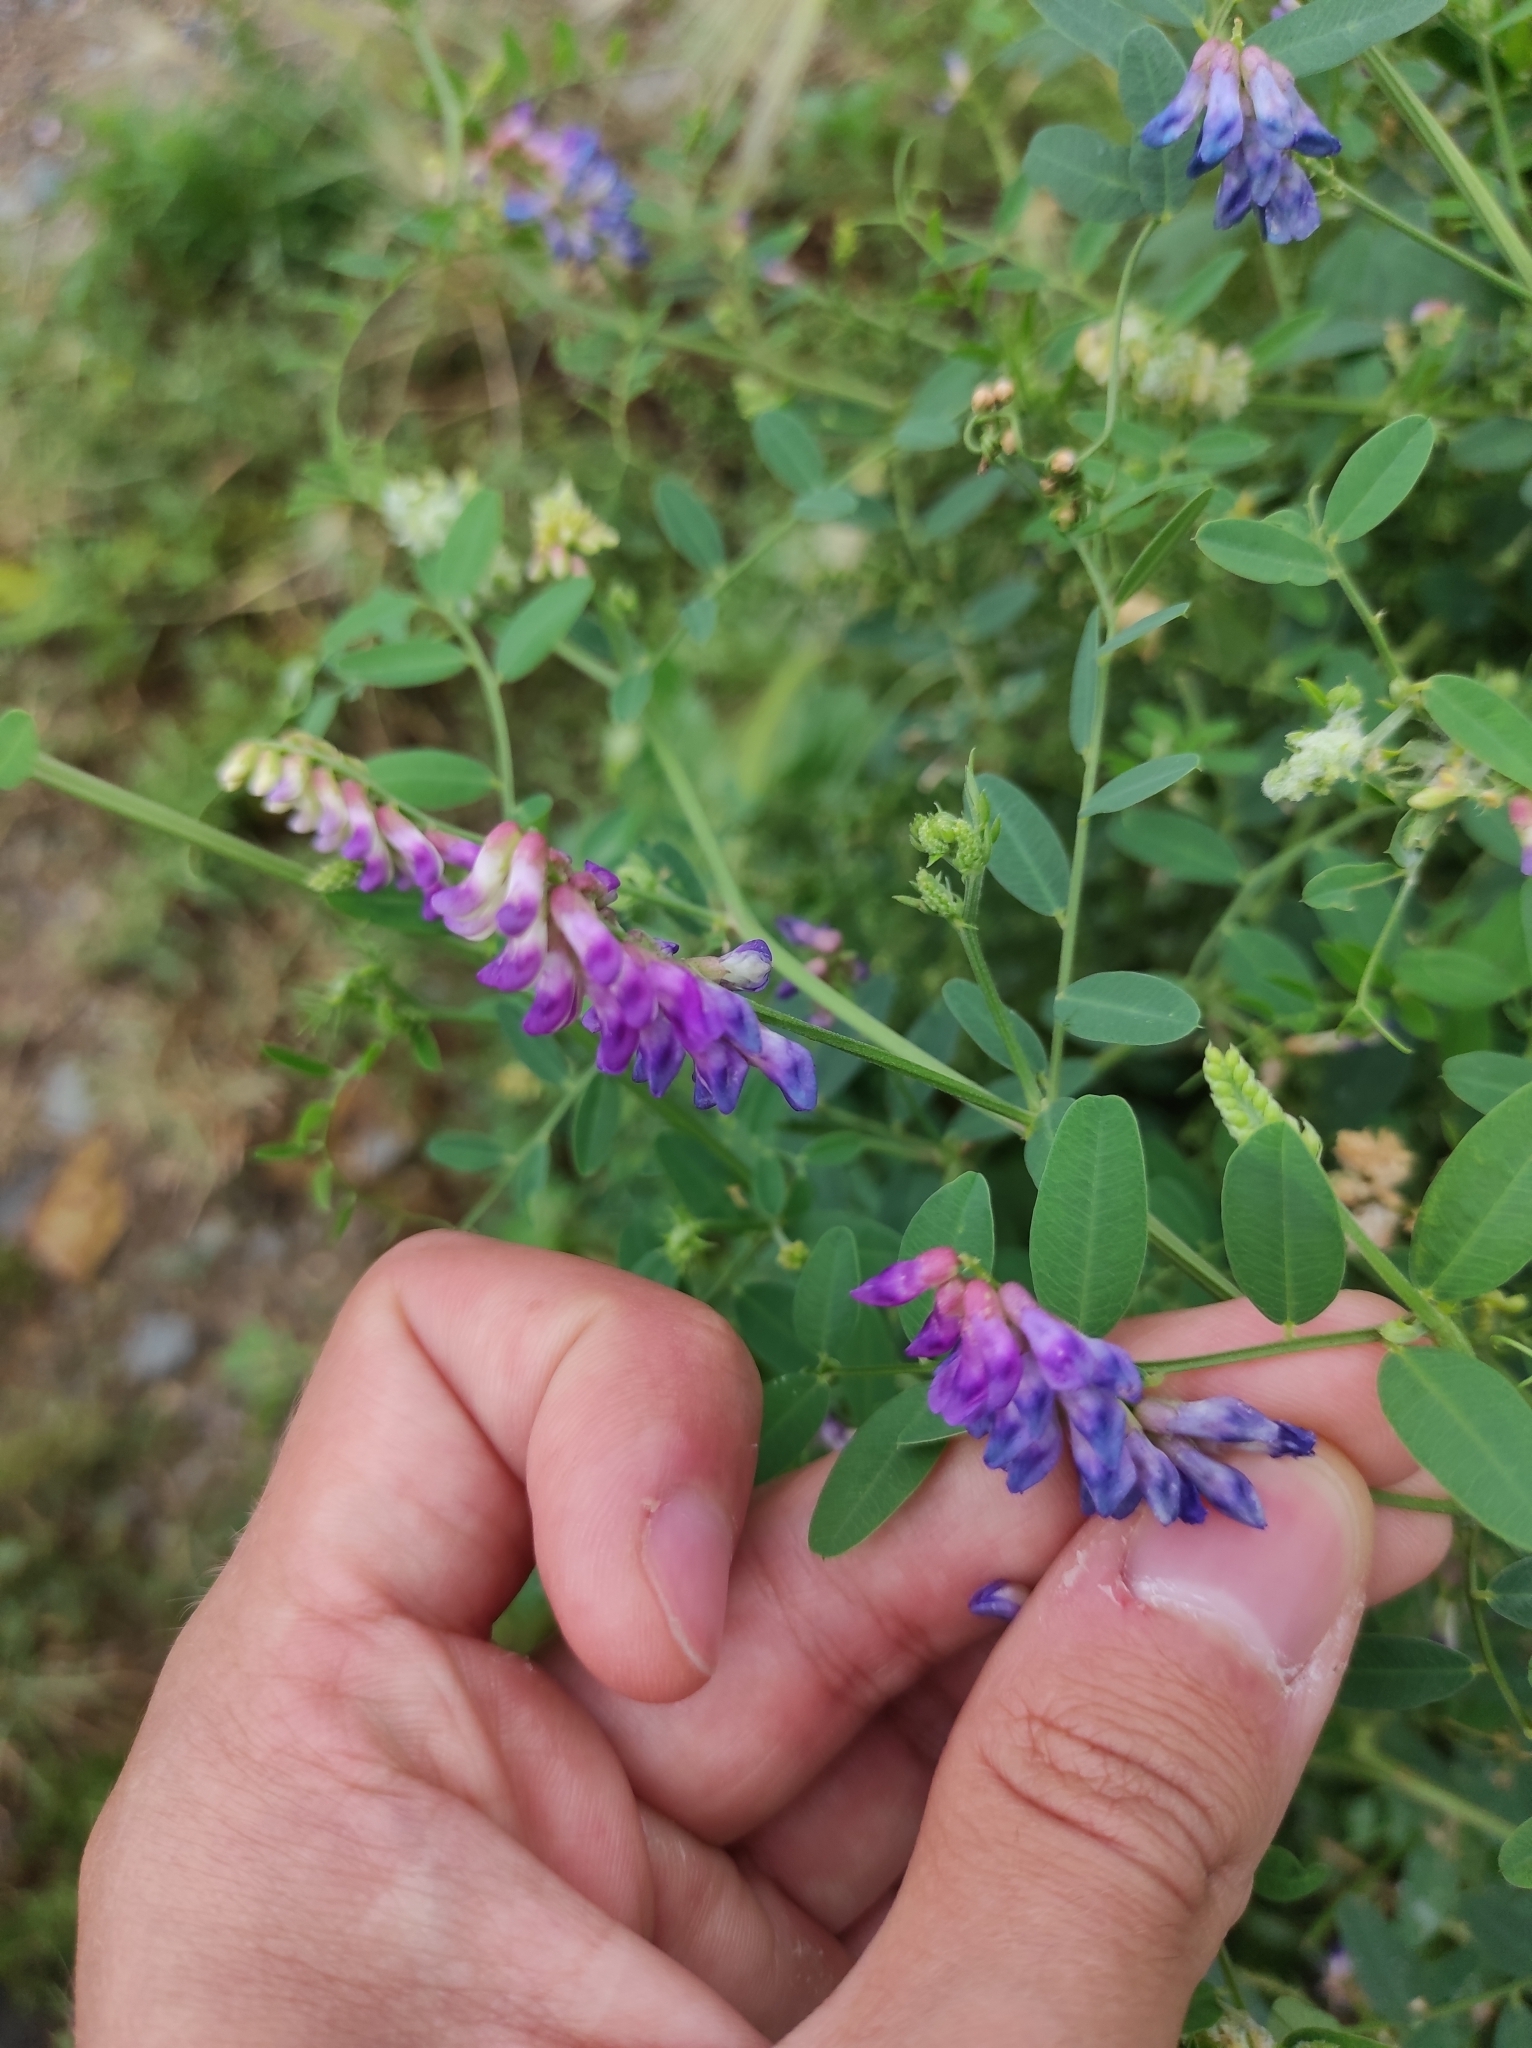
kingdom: Plantae
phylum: Tracheophyta
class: Magnoliopsida
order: Fabales
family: Fabaceae
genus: Vicia
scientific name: Vicia amurensis
